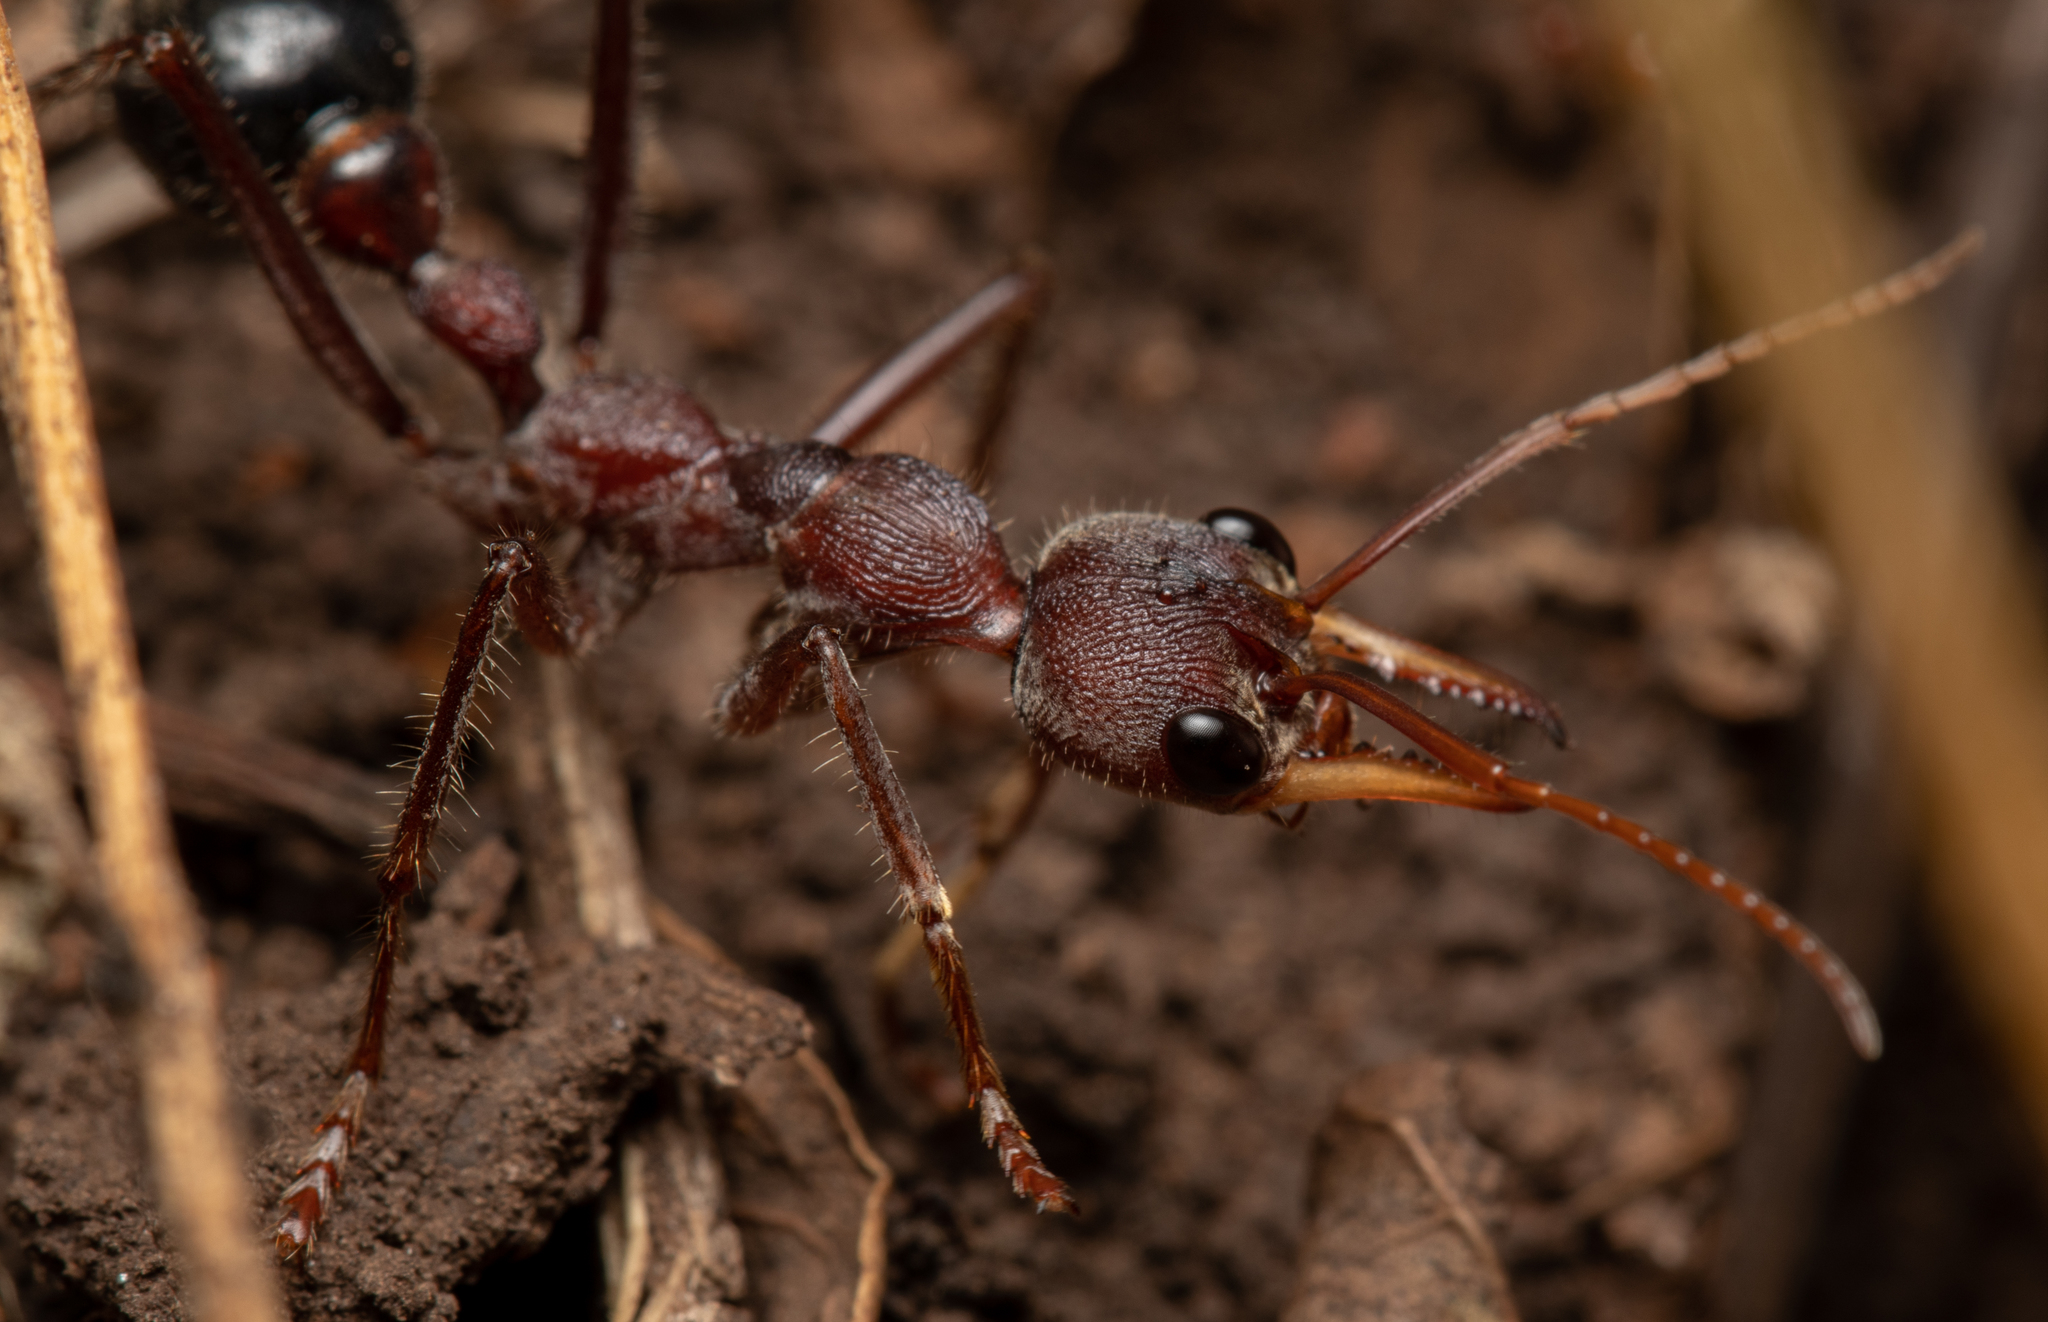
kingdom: Animalia
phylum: Arthropoda
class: Insecta
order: Hymenoptera
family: Formicidae
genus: Myrmecia
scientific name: Myrmecia flavicoma
